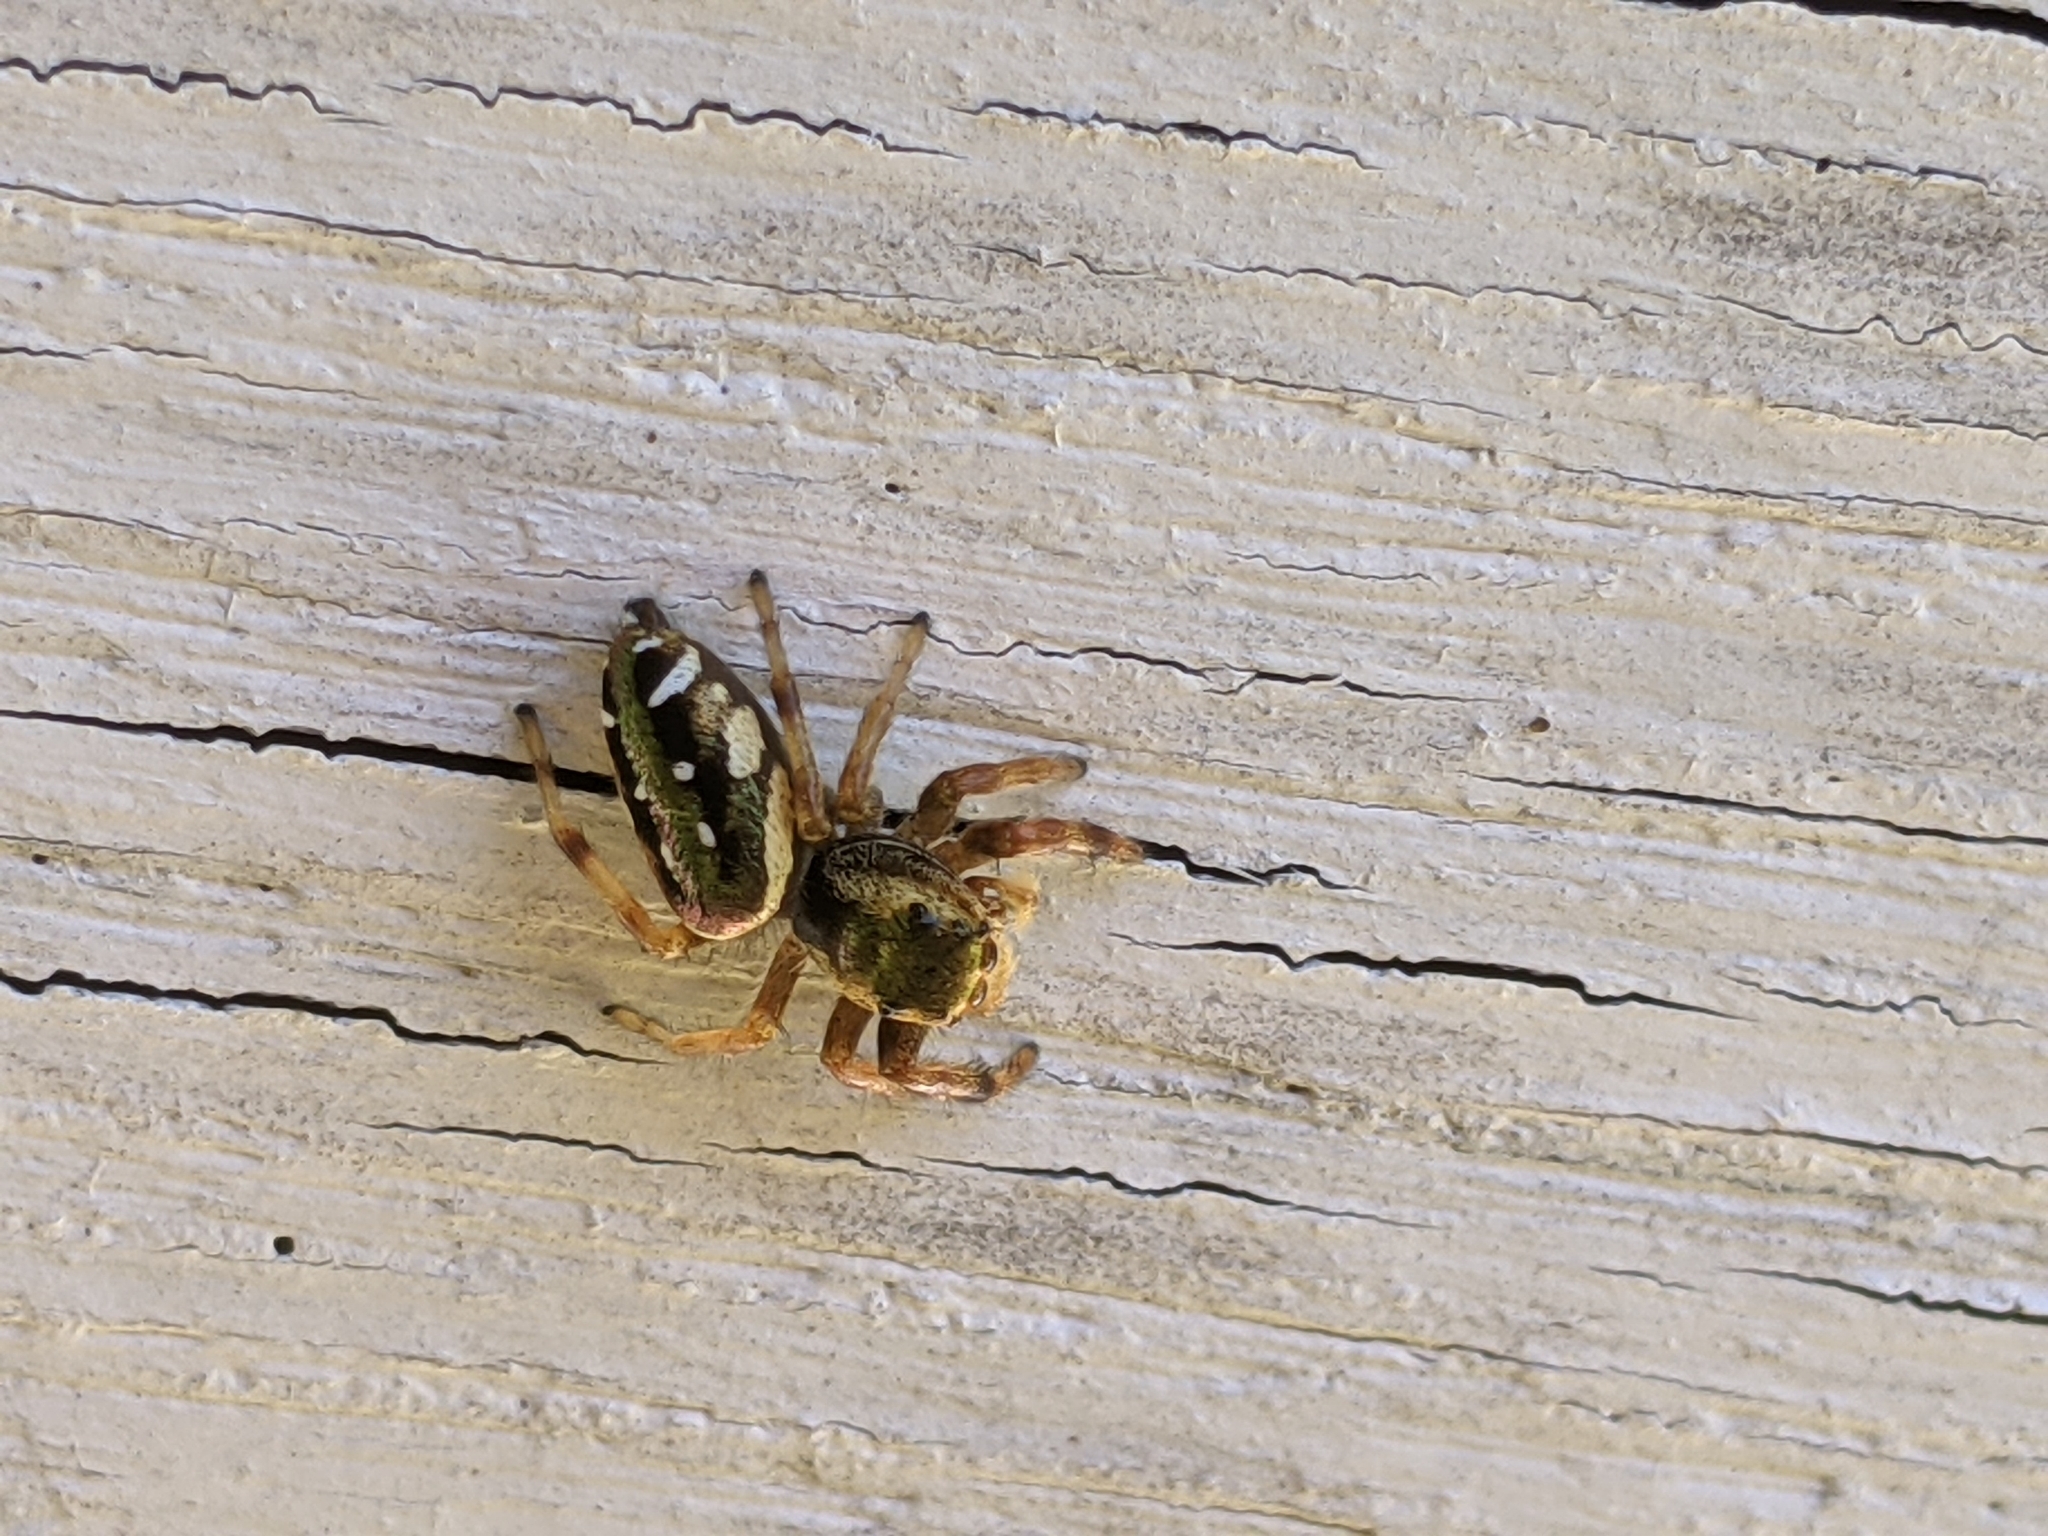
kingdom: Animalia
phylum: Arthropoda
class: Arachnida
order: Araneae
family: Salticidae
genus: Paraphidippus
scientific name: Paraphidippus aurantius
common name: Jumping spiders
